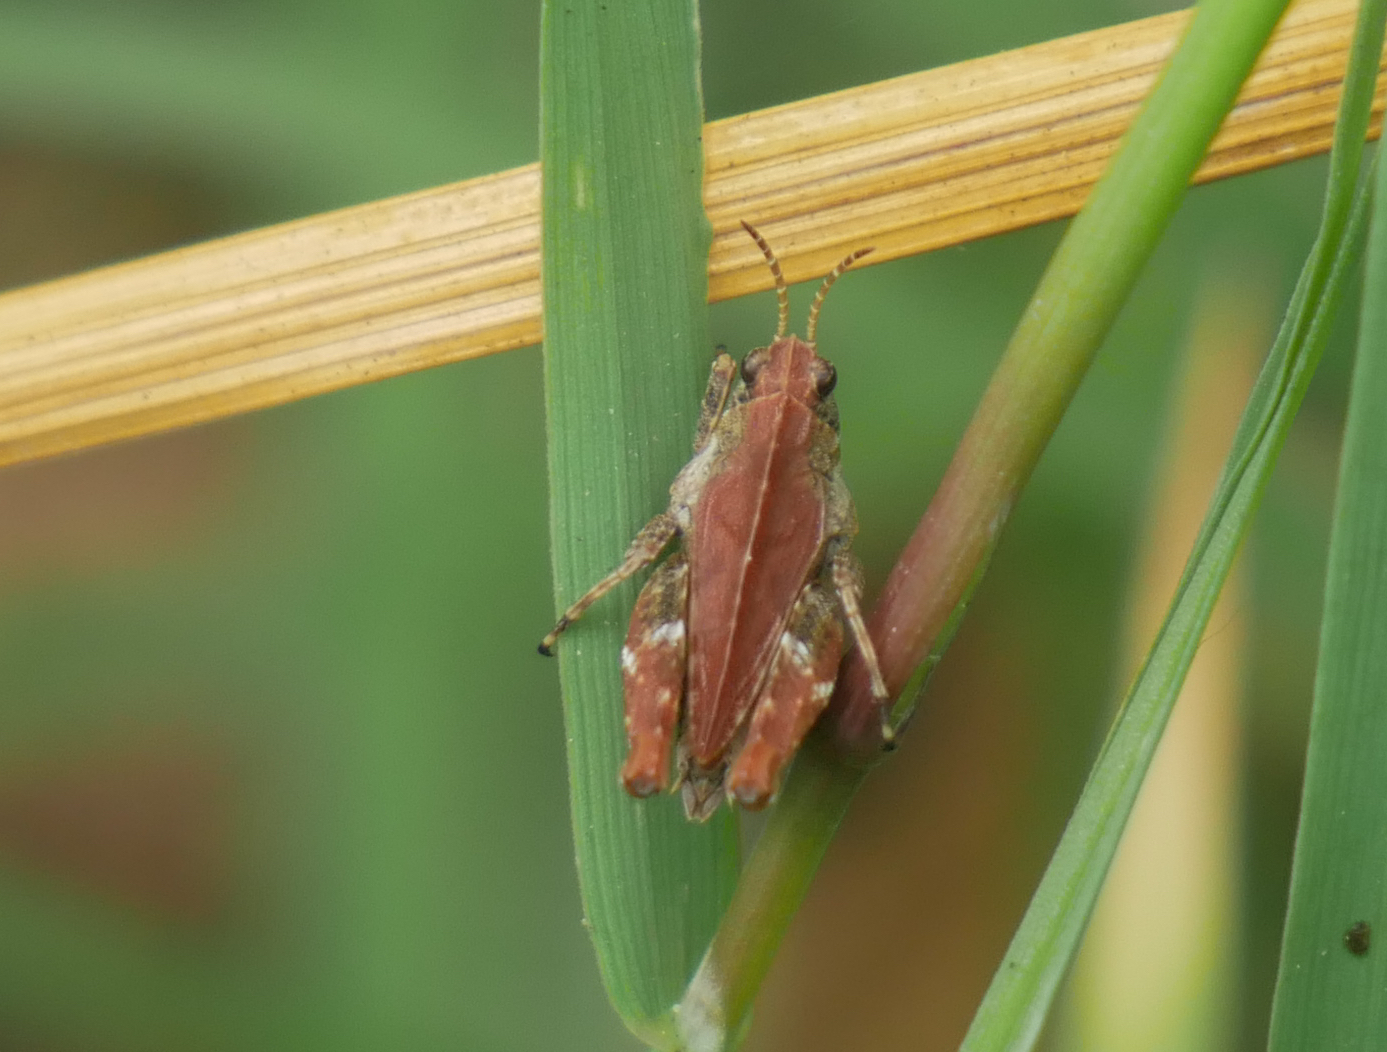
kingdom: Animalia
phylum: Arthropoda
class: Insecta
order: Orthoptera
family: Tetrigidae
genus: Tetrix
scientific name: Tetrix undulata
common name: Common groundhopper
